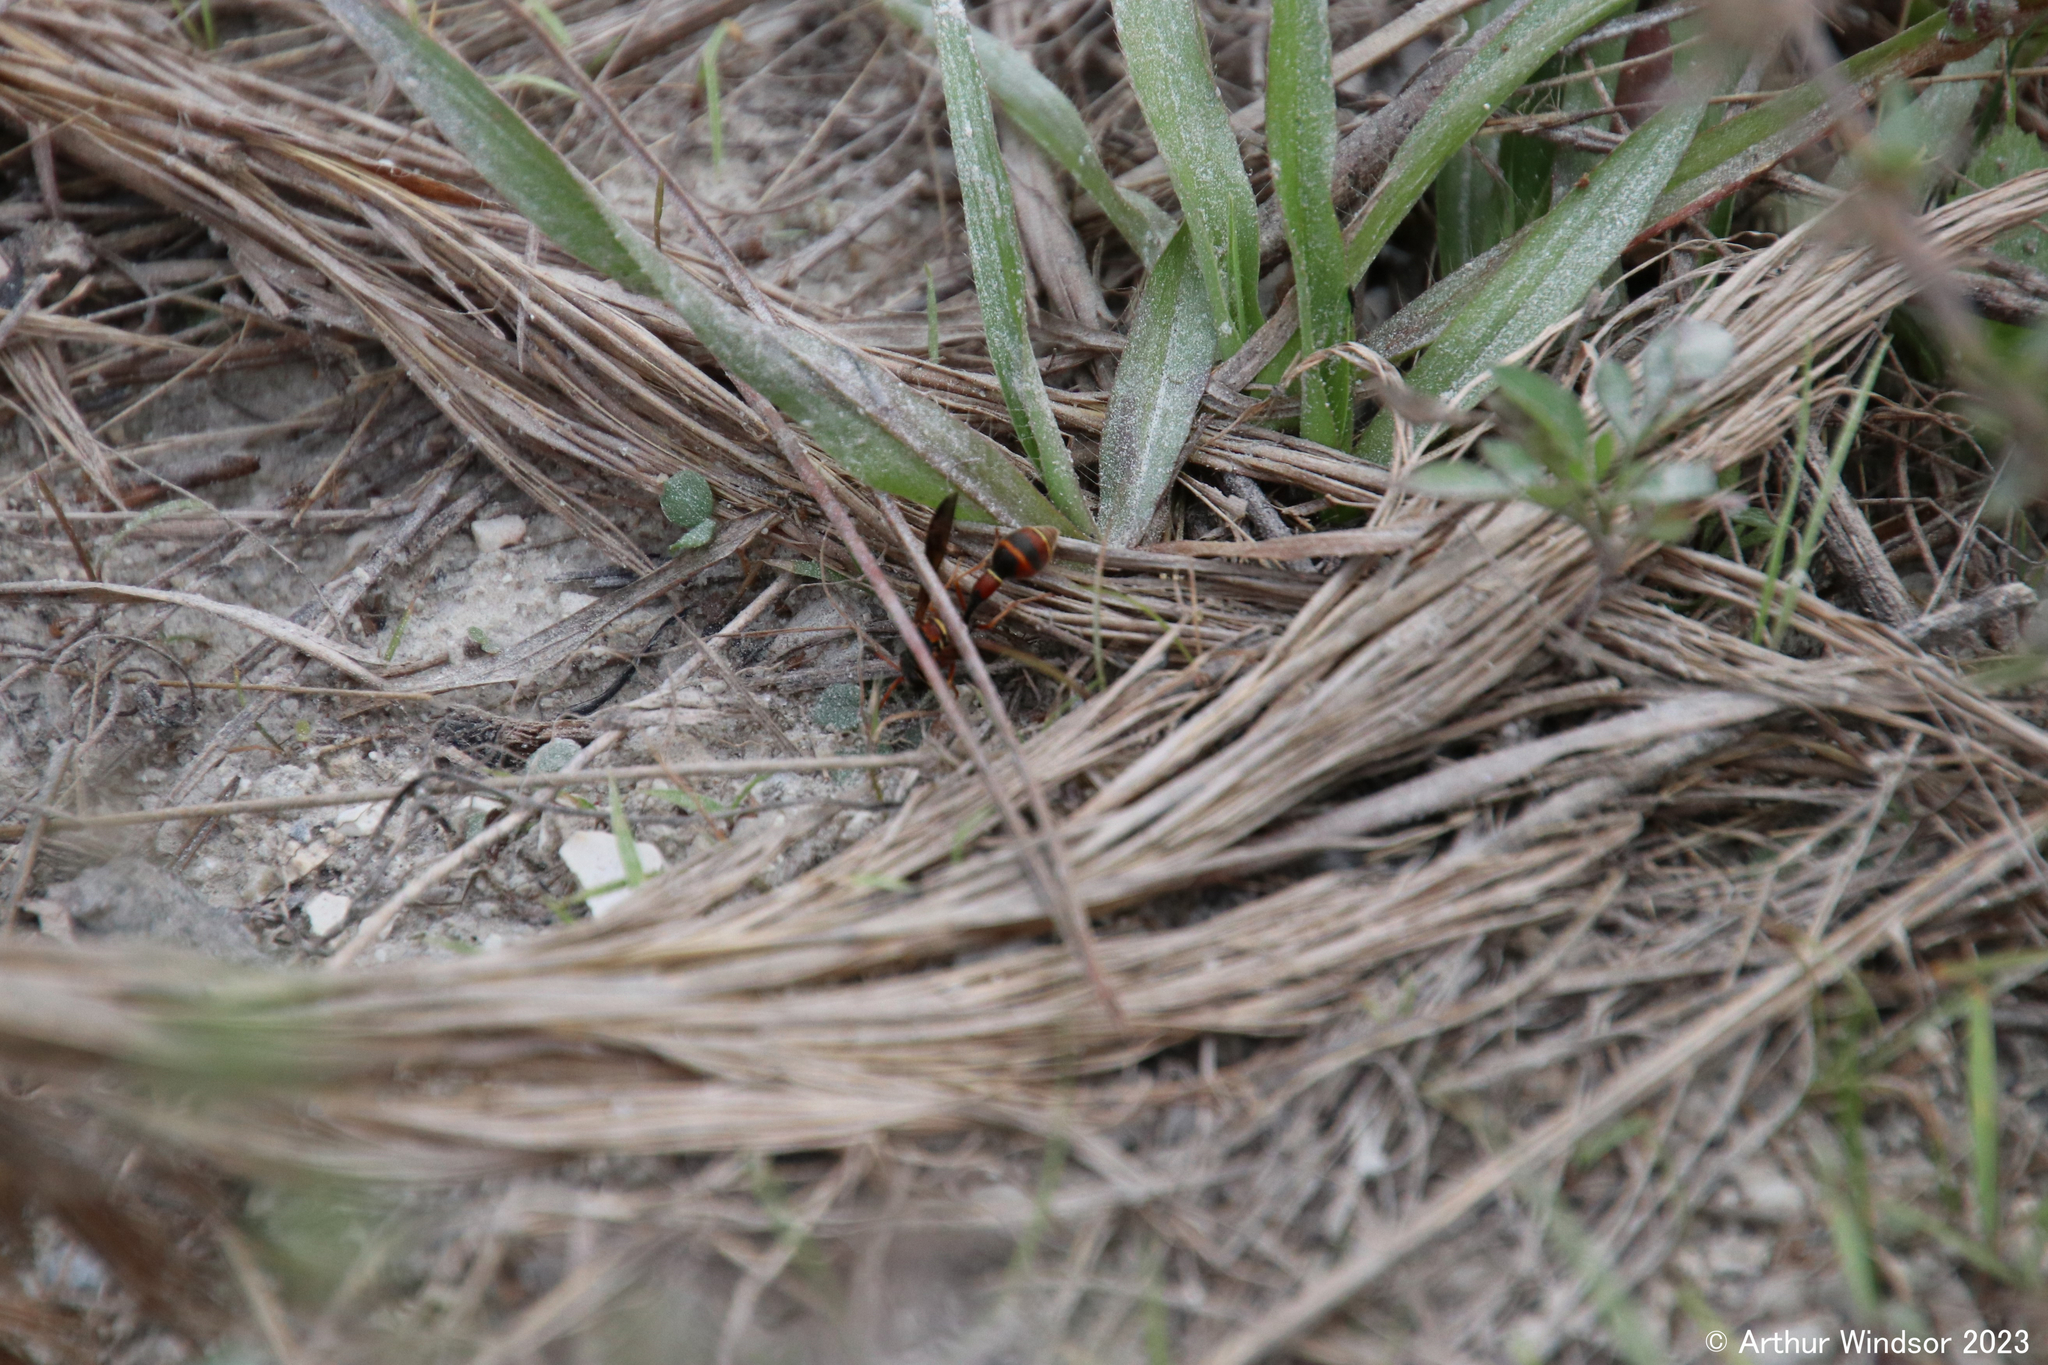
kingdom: Animalia
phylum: Arthropoda
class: Insecta
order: Hymenoptera
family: Vespidae
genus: Eumenes
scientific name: Eumenes smithii
